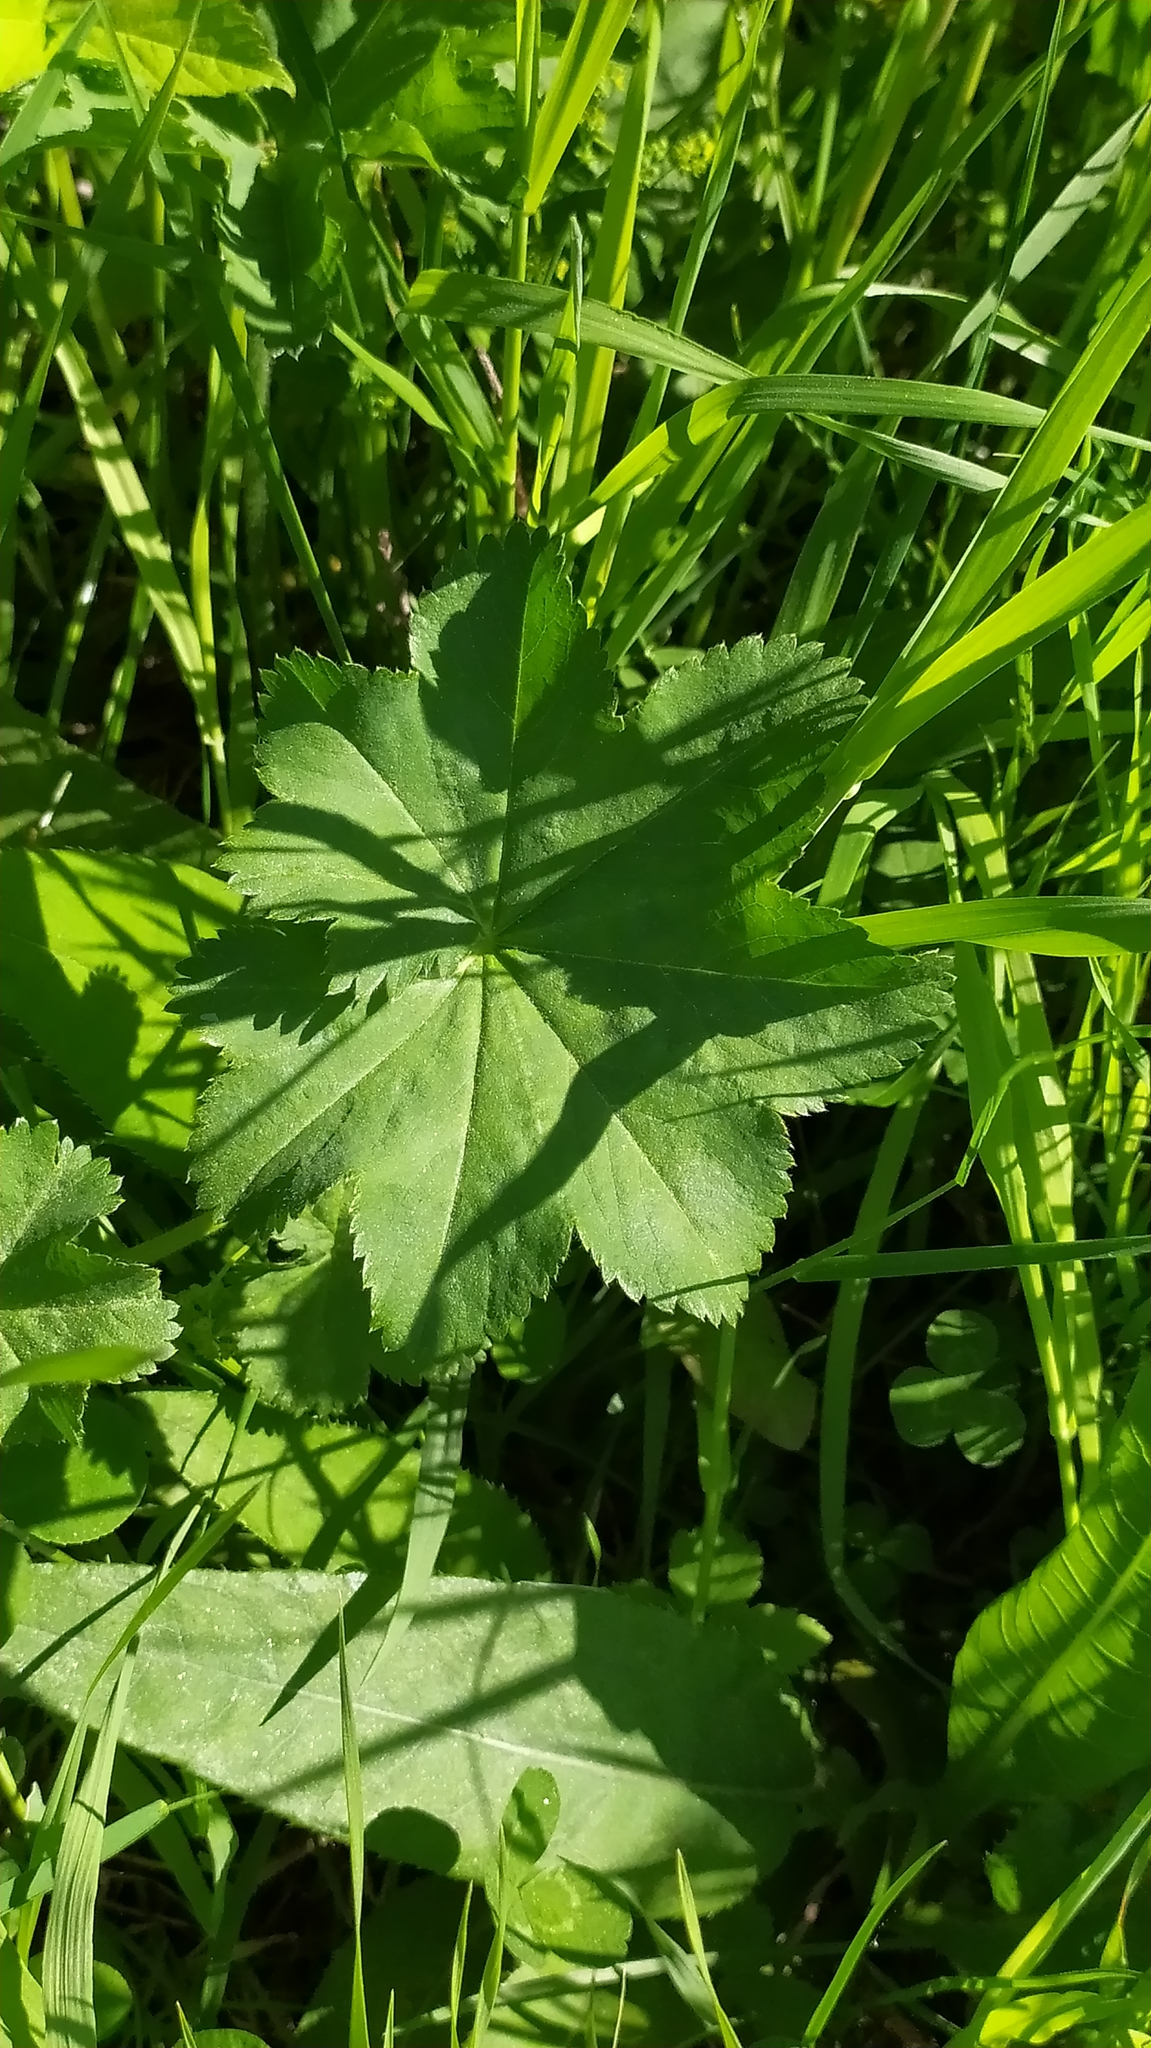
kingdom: Plantae
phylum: Tracheophyta
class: Magnoliopsida
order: Rosales
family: Rosaceae
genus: Alchemilla
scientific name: Alchemilla
